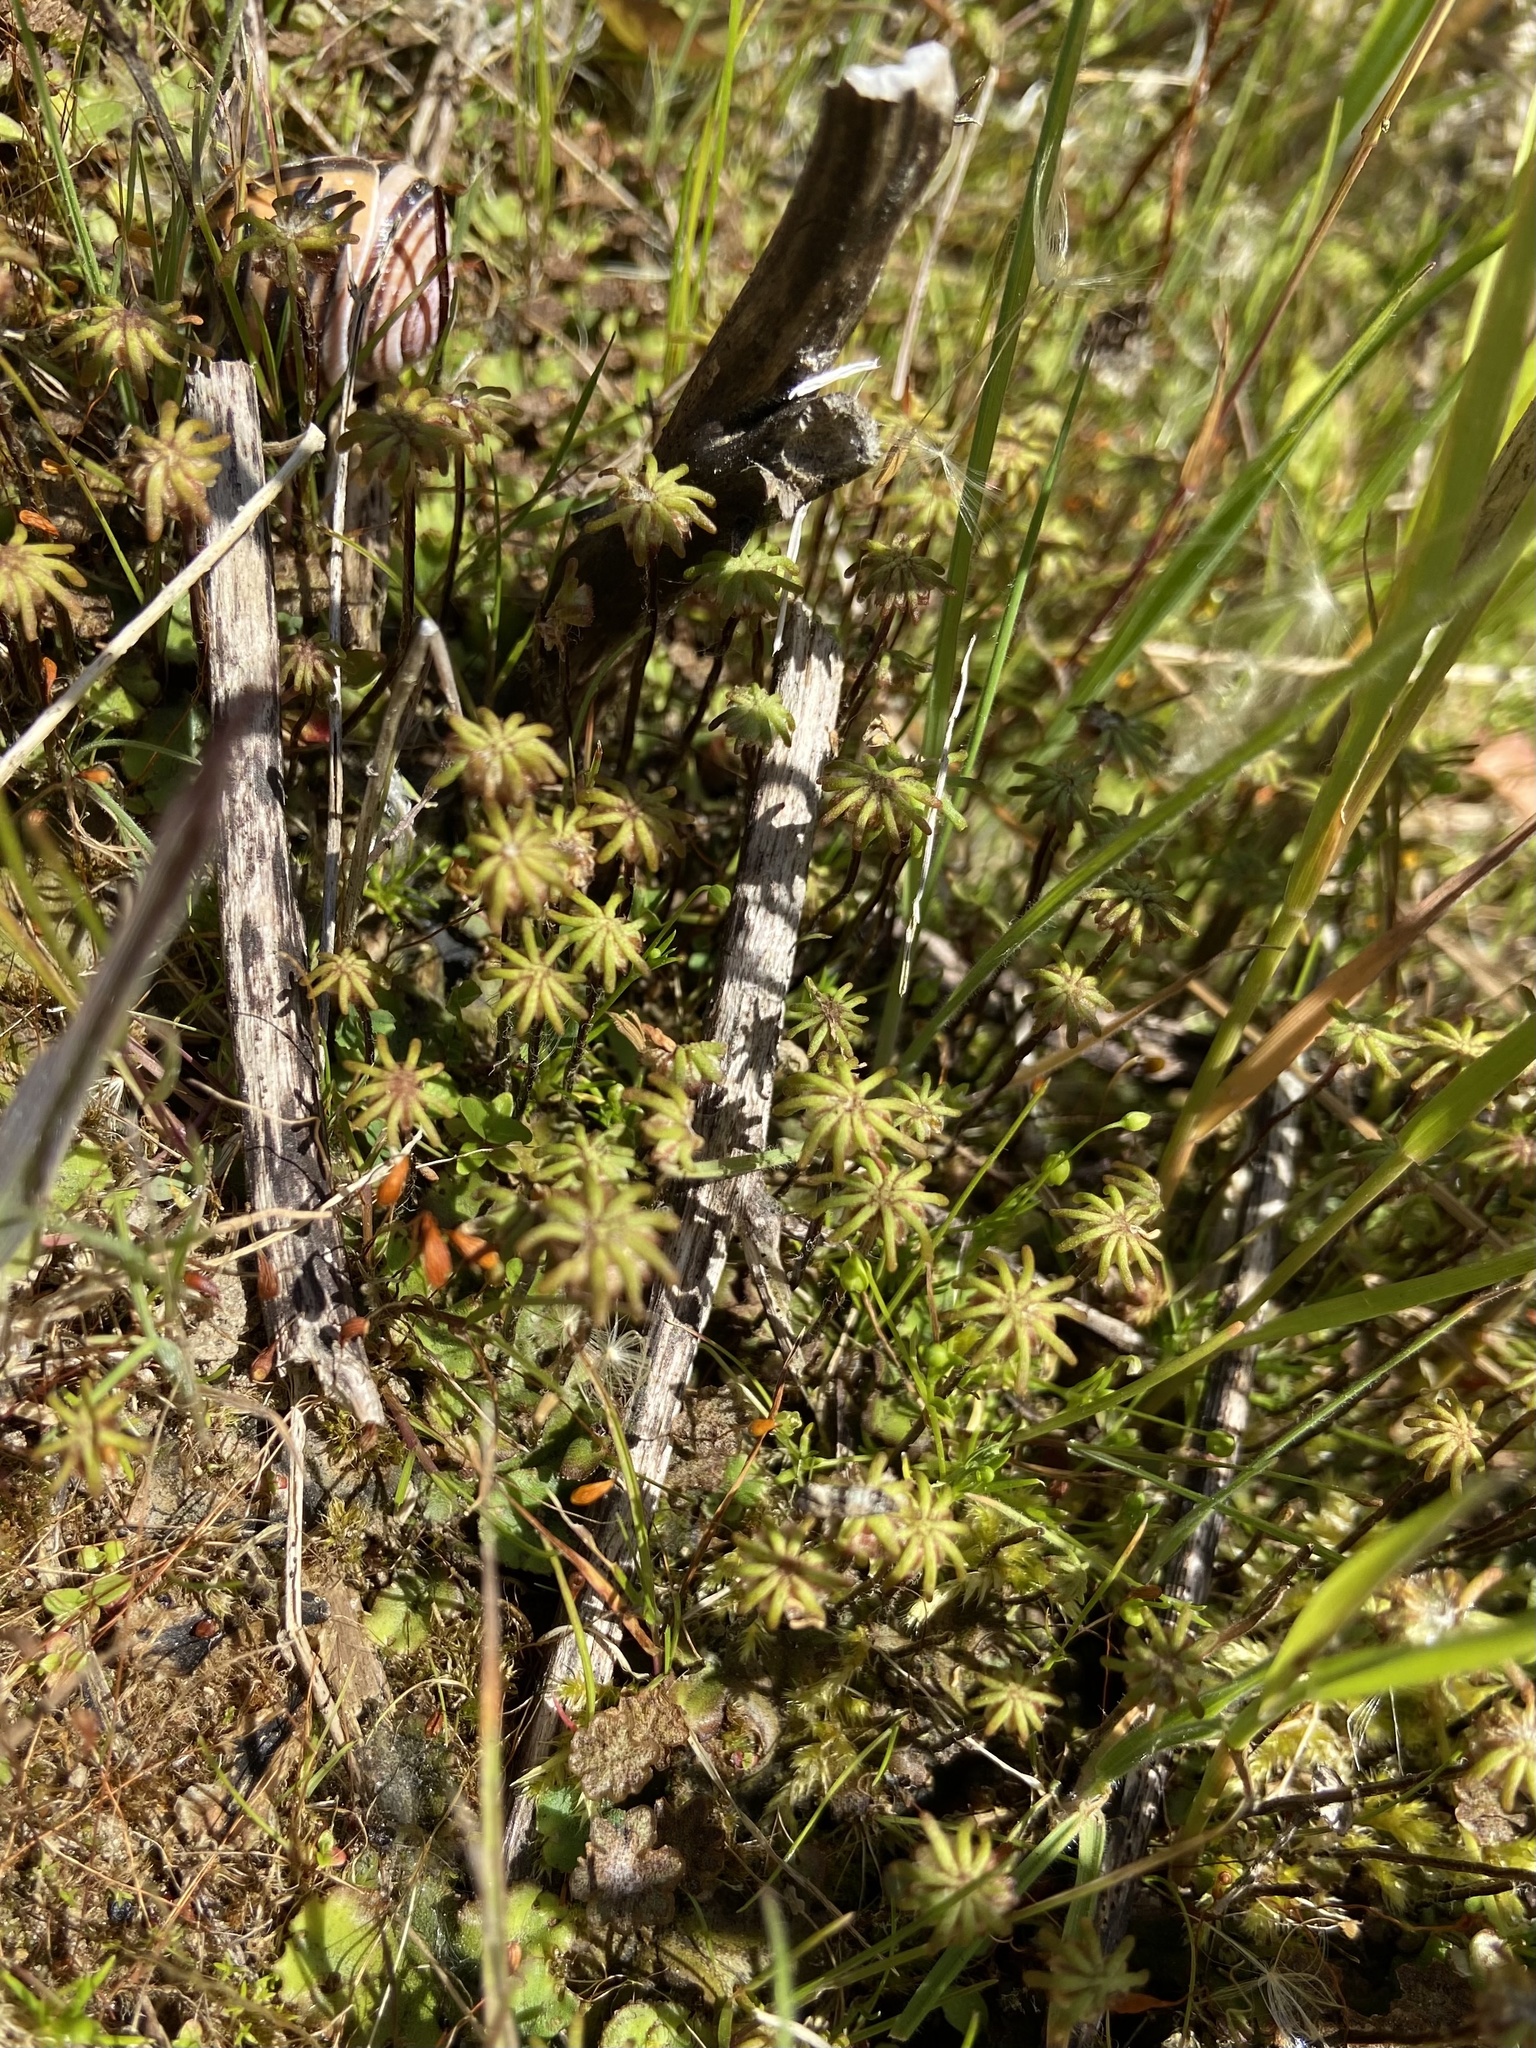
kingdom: Plantae
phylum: Marchantiophyta
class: Marchantiopsida
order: Marchantiales
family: Marchantiaceae
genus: Marchantia
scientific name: Marchantia polymorpha
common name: Common liverwort
